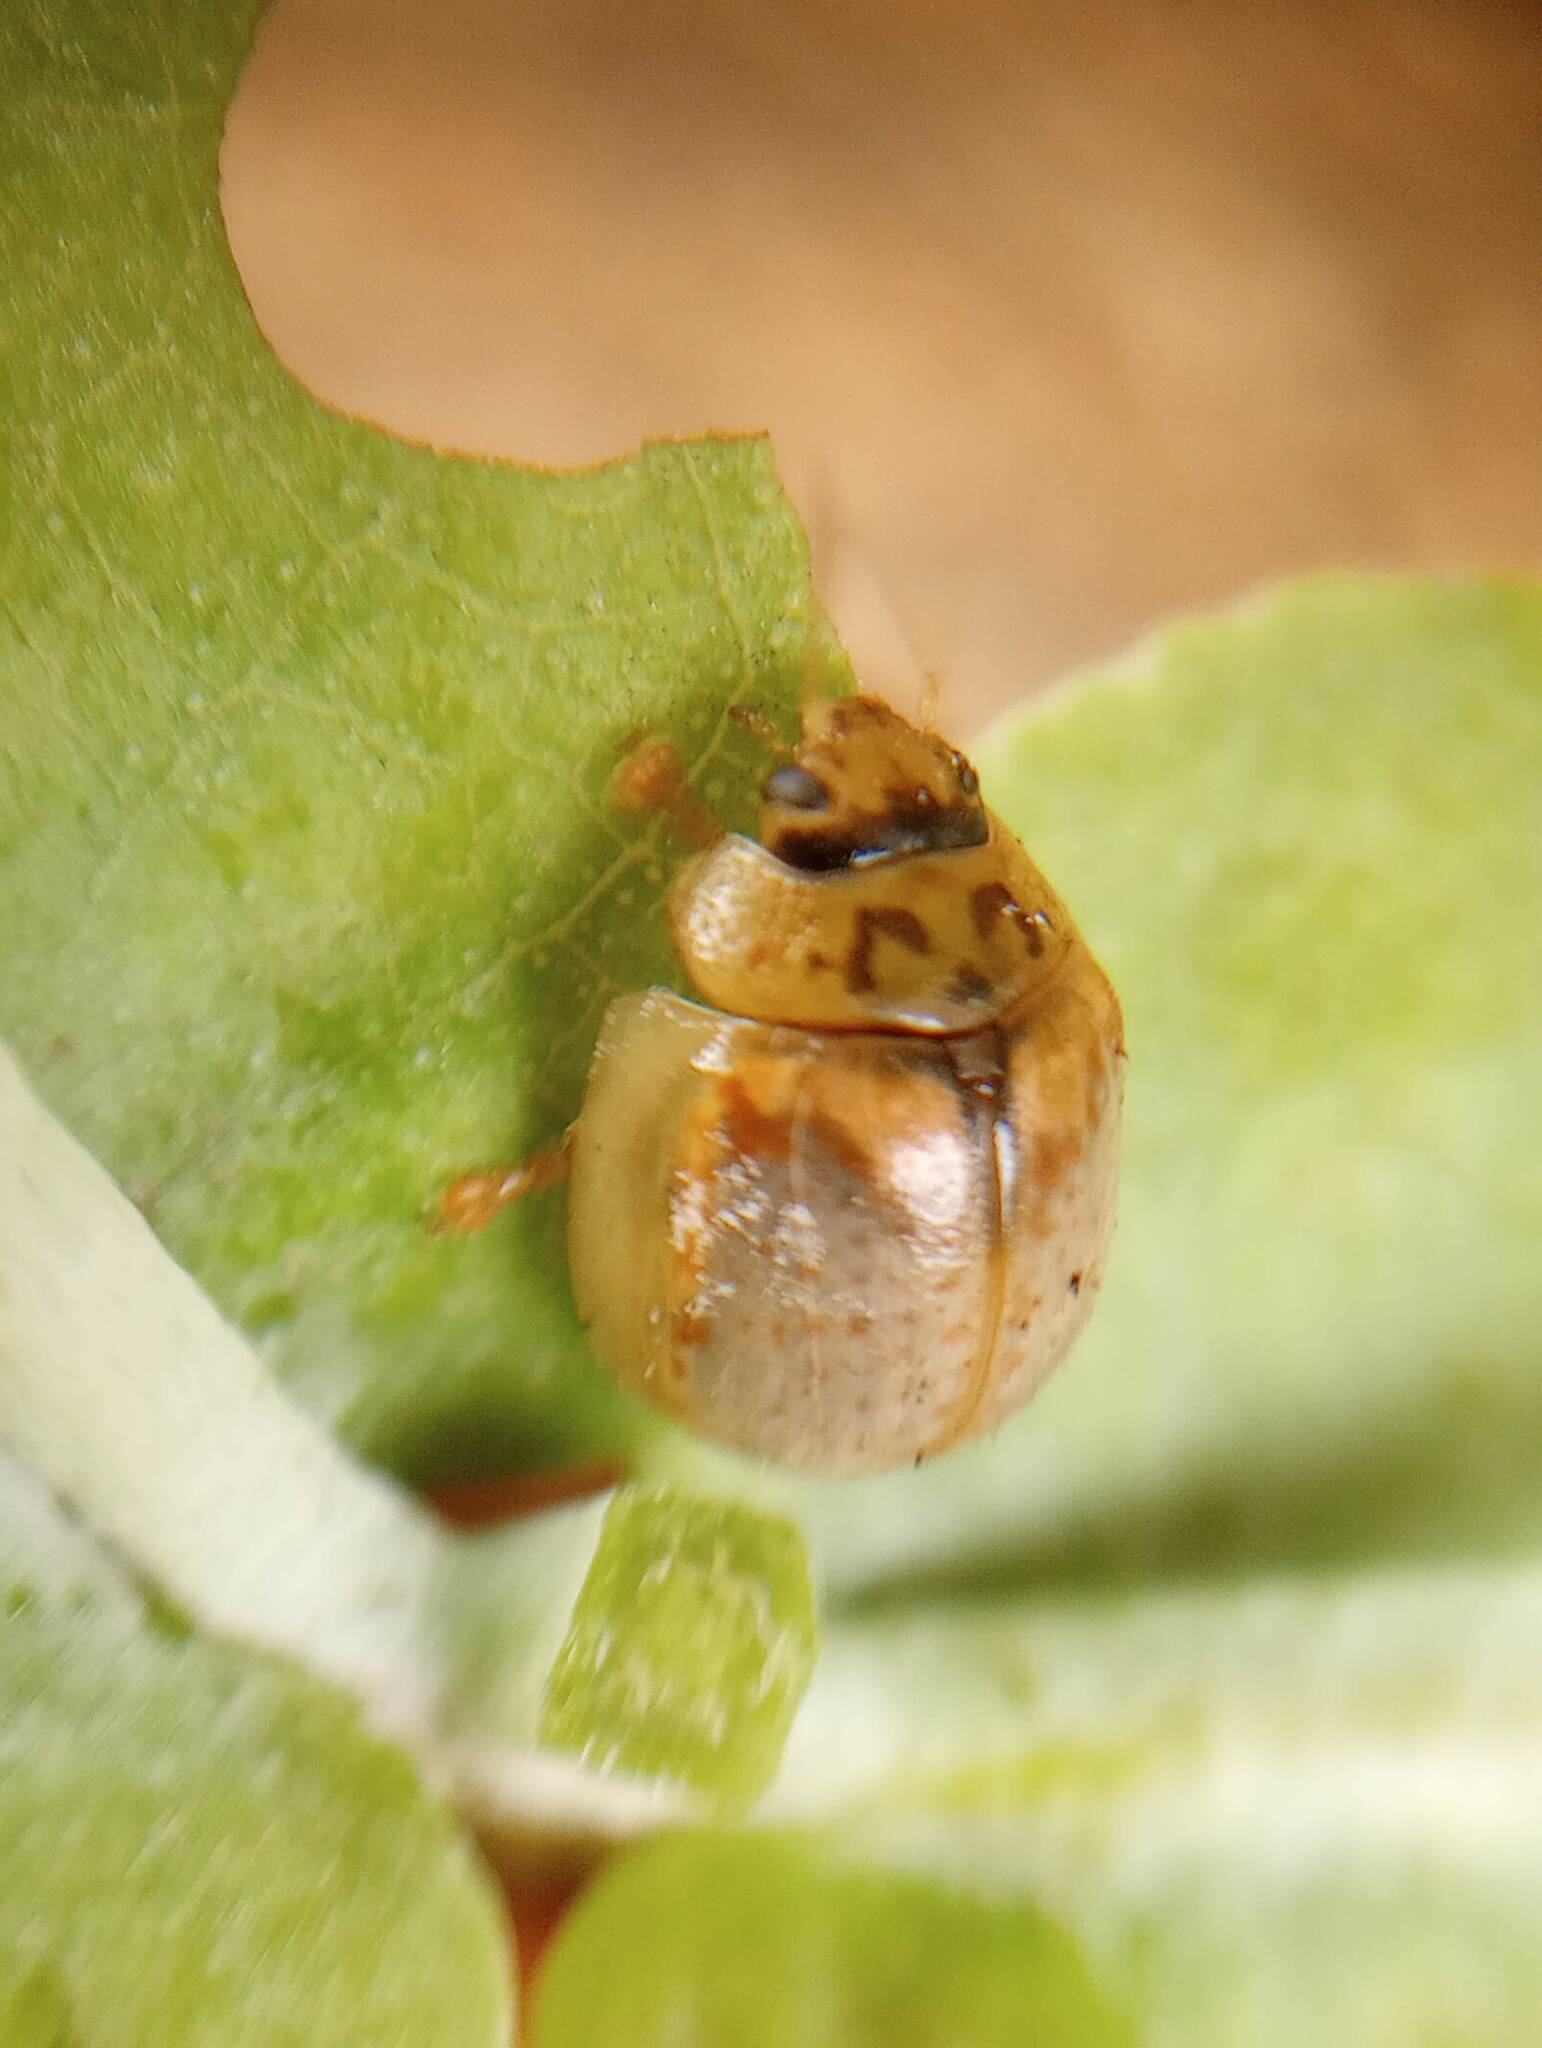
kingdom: Animalia
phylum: Arthropoda
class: Insecta
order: Coleoptera
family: Chrysomelidae
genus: Paropsisterna
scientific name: Paropsisterna m-fuscum
